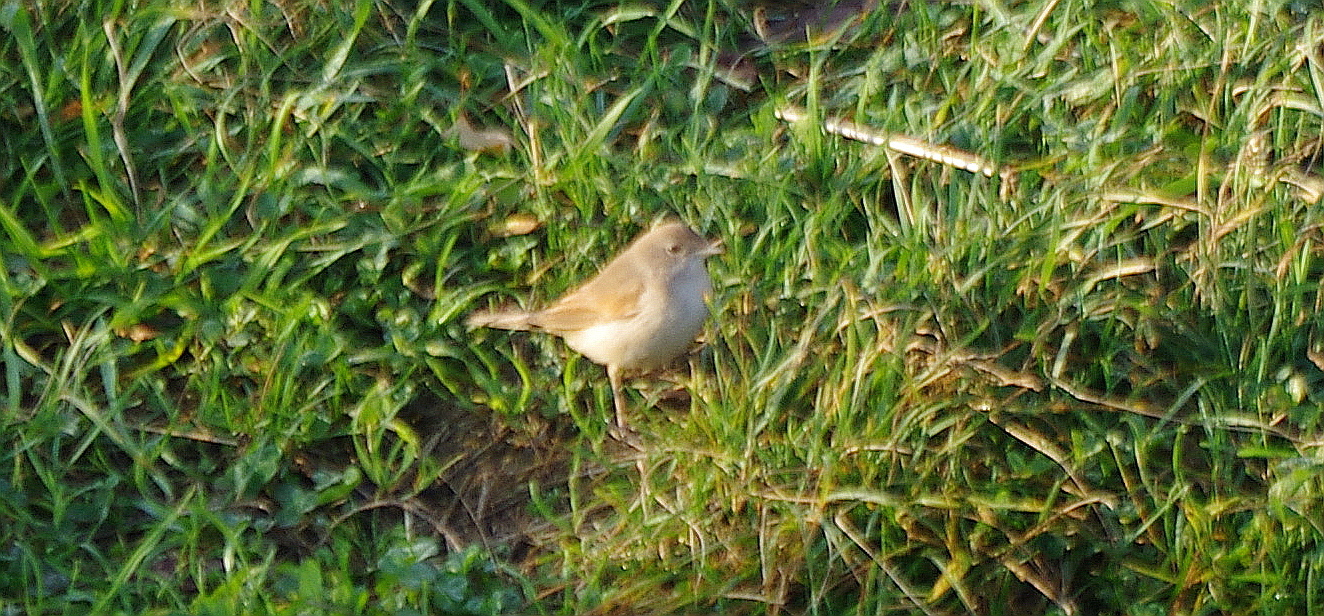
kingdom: Animalia
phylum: Chordata
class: Aves
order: Passeriformes
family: Sylviidae
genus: Sylvia
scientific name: Sylvia communis
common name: Common whitethroat
